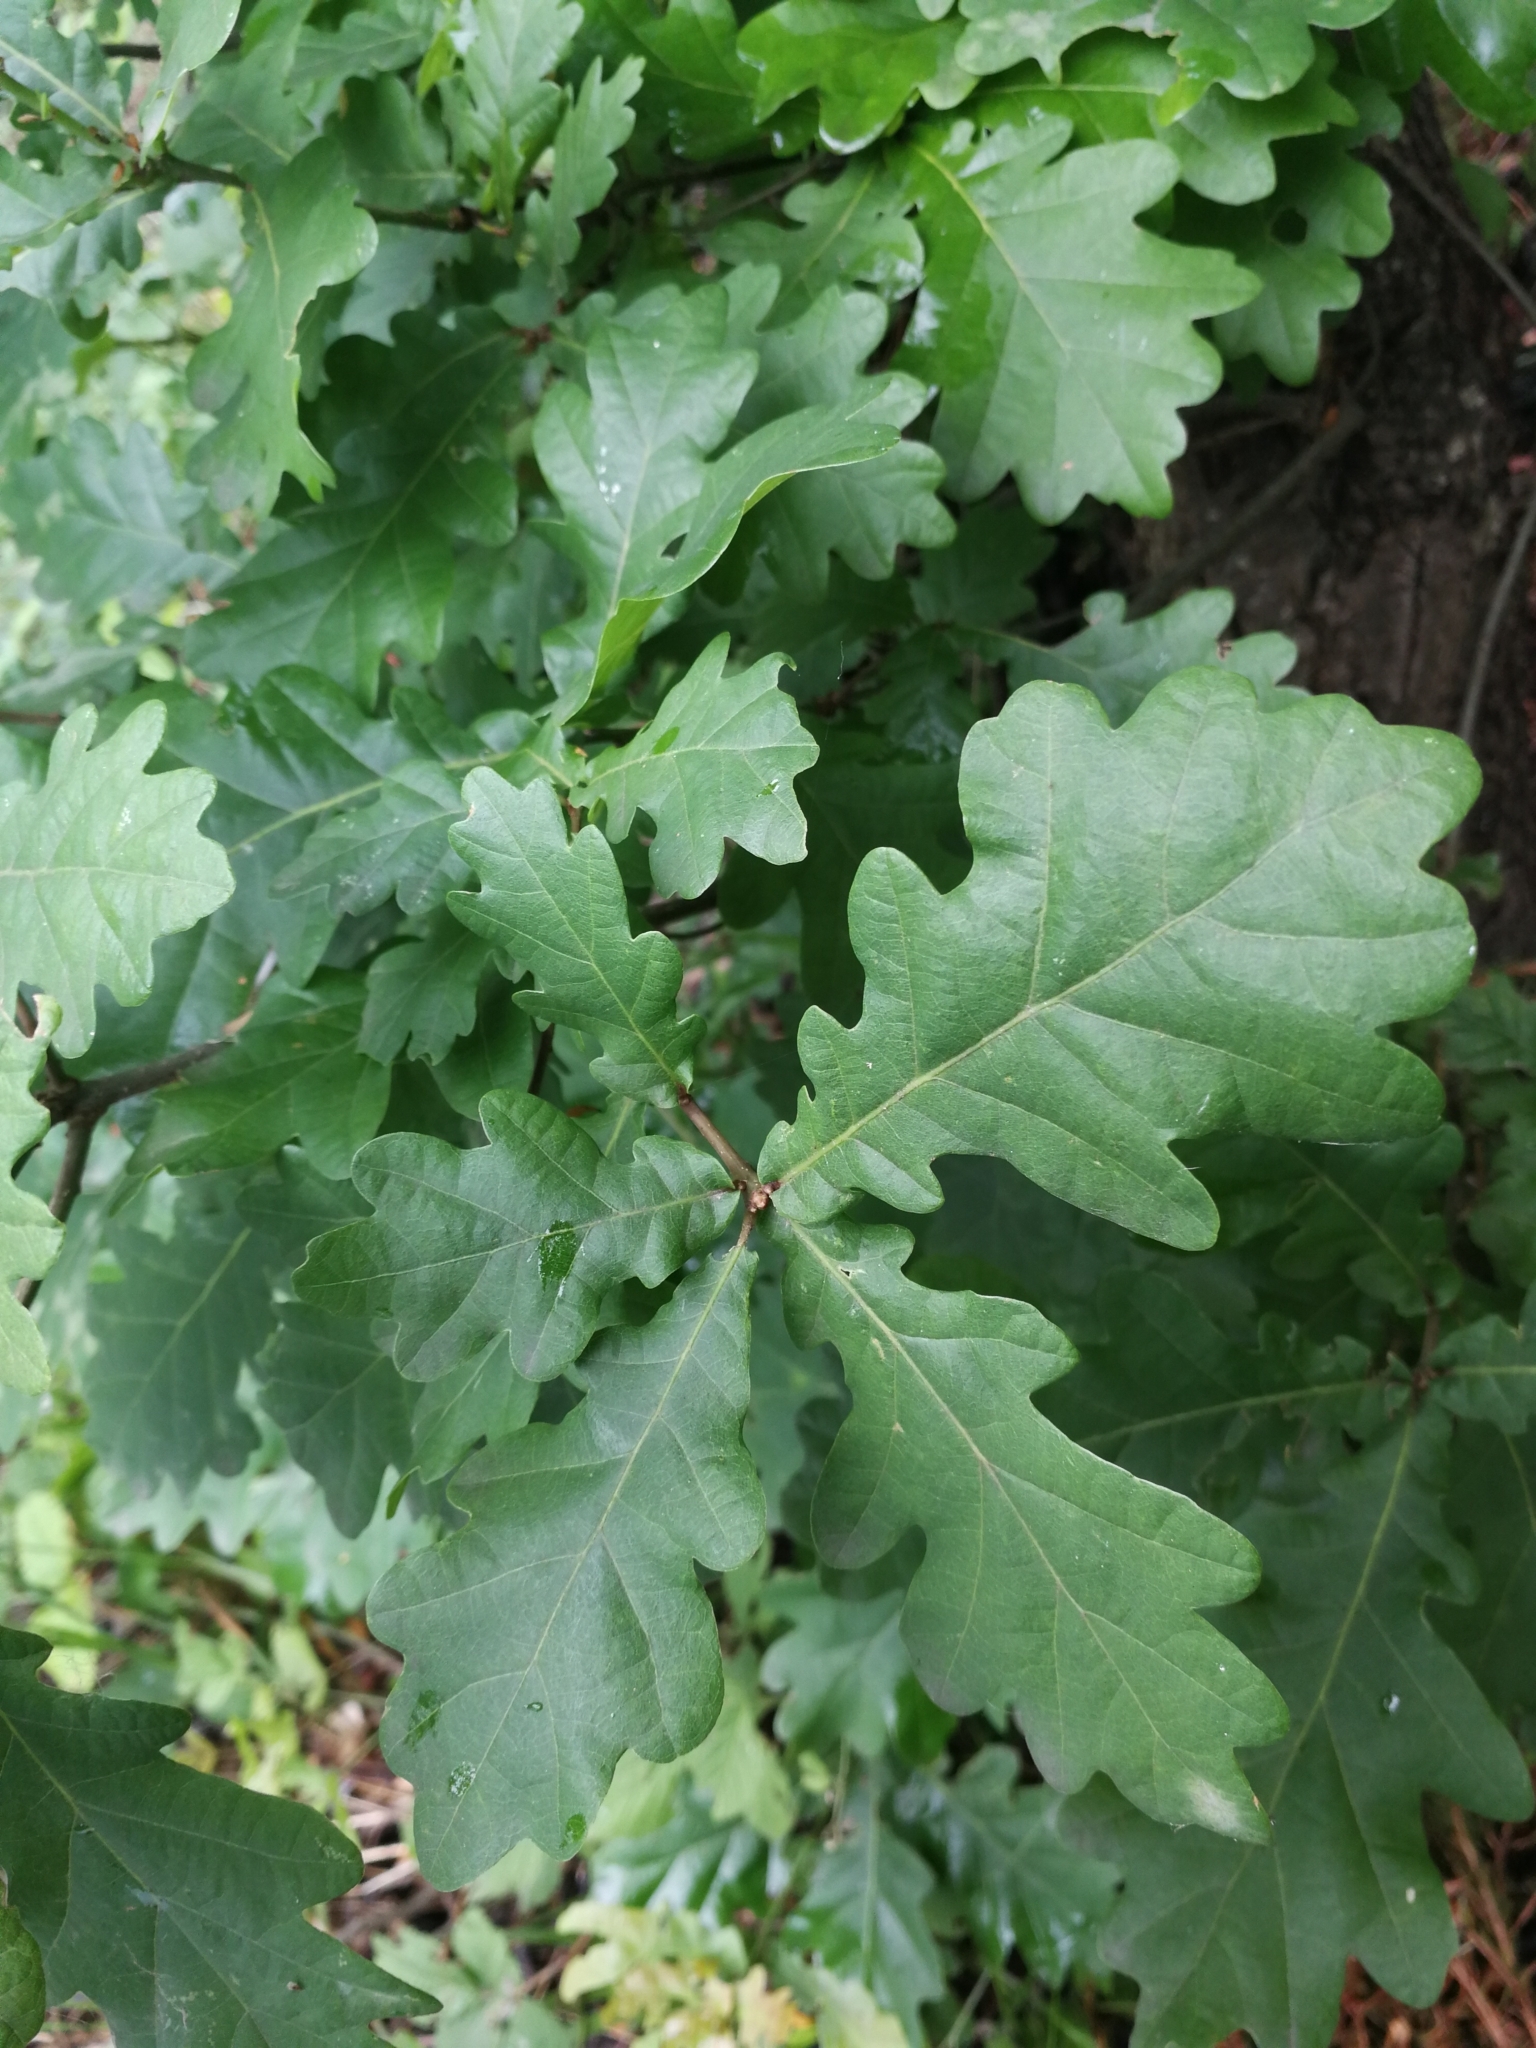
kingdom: Plantae
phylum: Tracheophyta
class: Magnoliopsida
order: Fagales
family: Fagaceae
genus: Quercus
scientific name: Quercus robur
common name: Pedunculate oak
